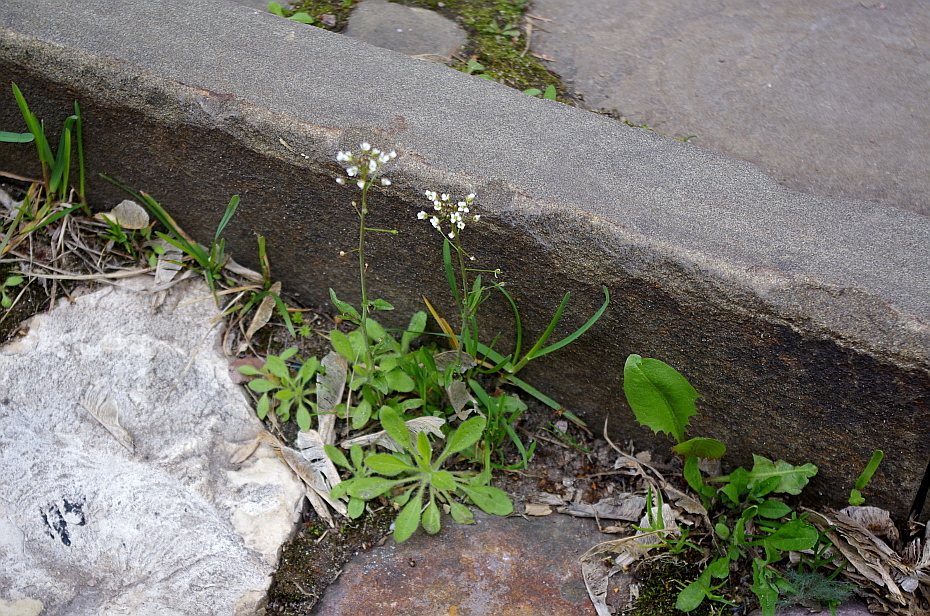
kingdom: Plantae
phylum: Tracheophyta
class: Magnoliopsida
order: Brassicales
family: Brassicaceae
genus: Capsella
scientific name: Capsella bursa-pastoris
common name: Shepherd's purse
